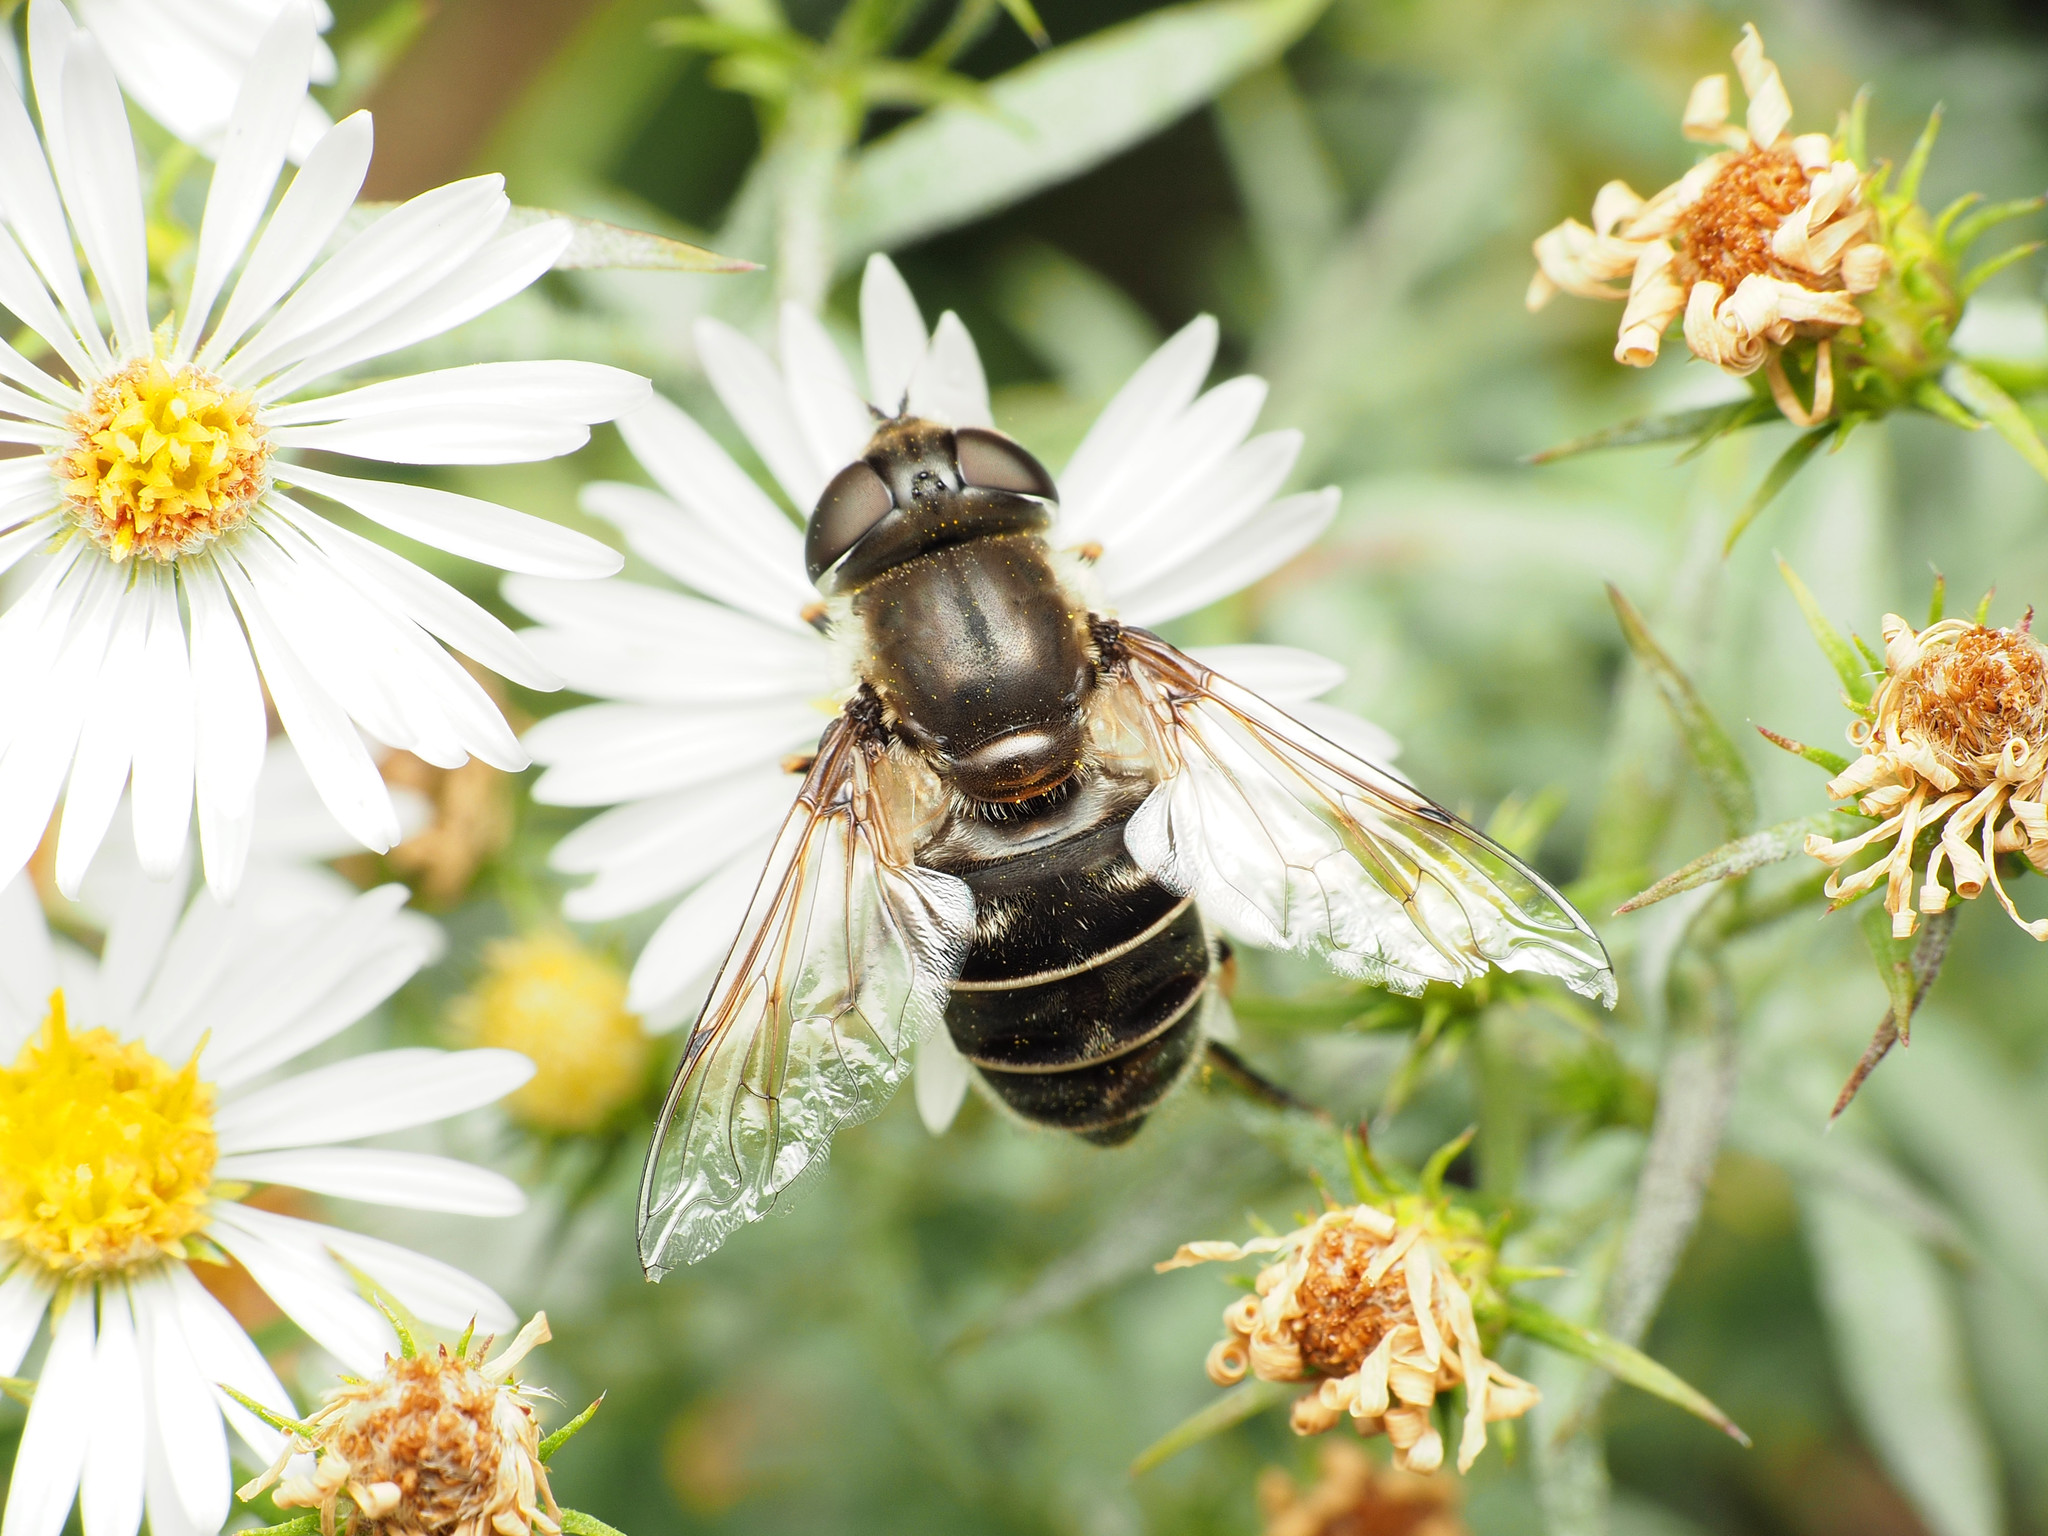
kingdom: Animalia
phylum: Arthropoda
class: Insecta
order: Diptera
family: Syrphidae
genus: Eristalis
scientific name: Eristalis dimidiata
